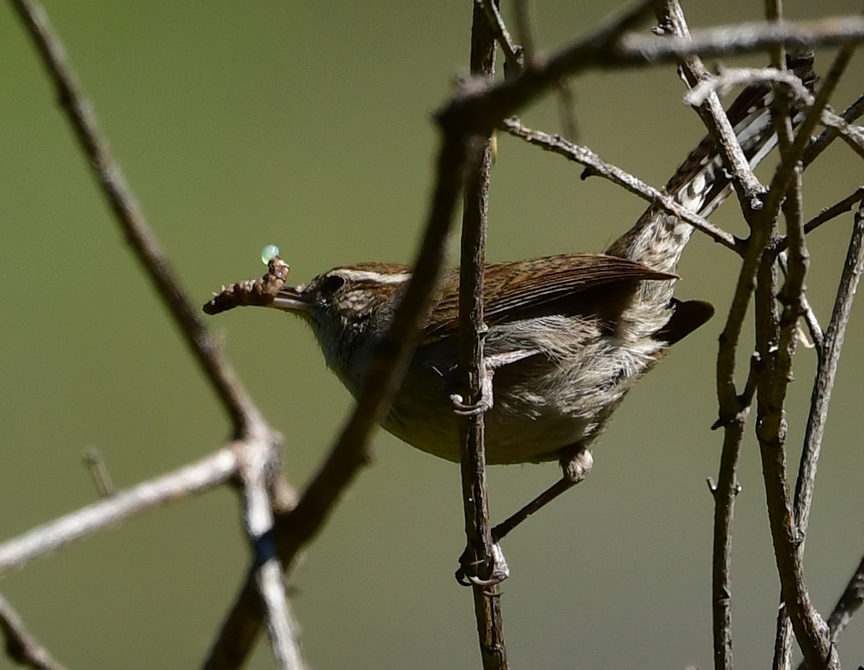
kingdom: Animalia
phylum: Chordata
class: Aves
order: Passeriformes
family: Troglodytidae
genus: Thryomanes
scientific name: Thryomanes bewickii
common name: Bewick's wren
